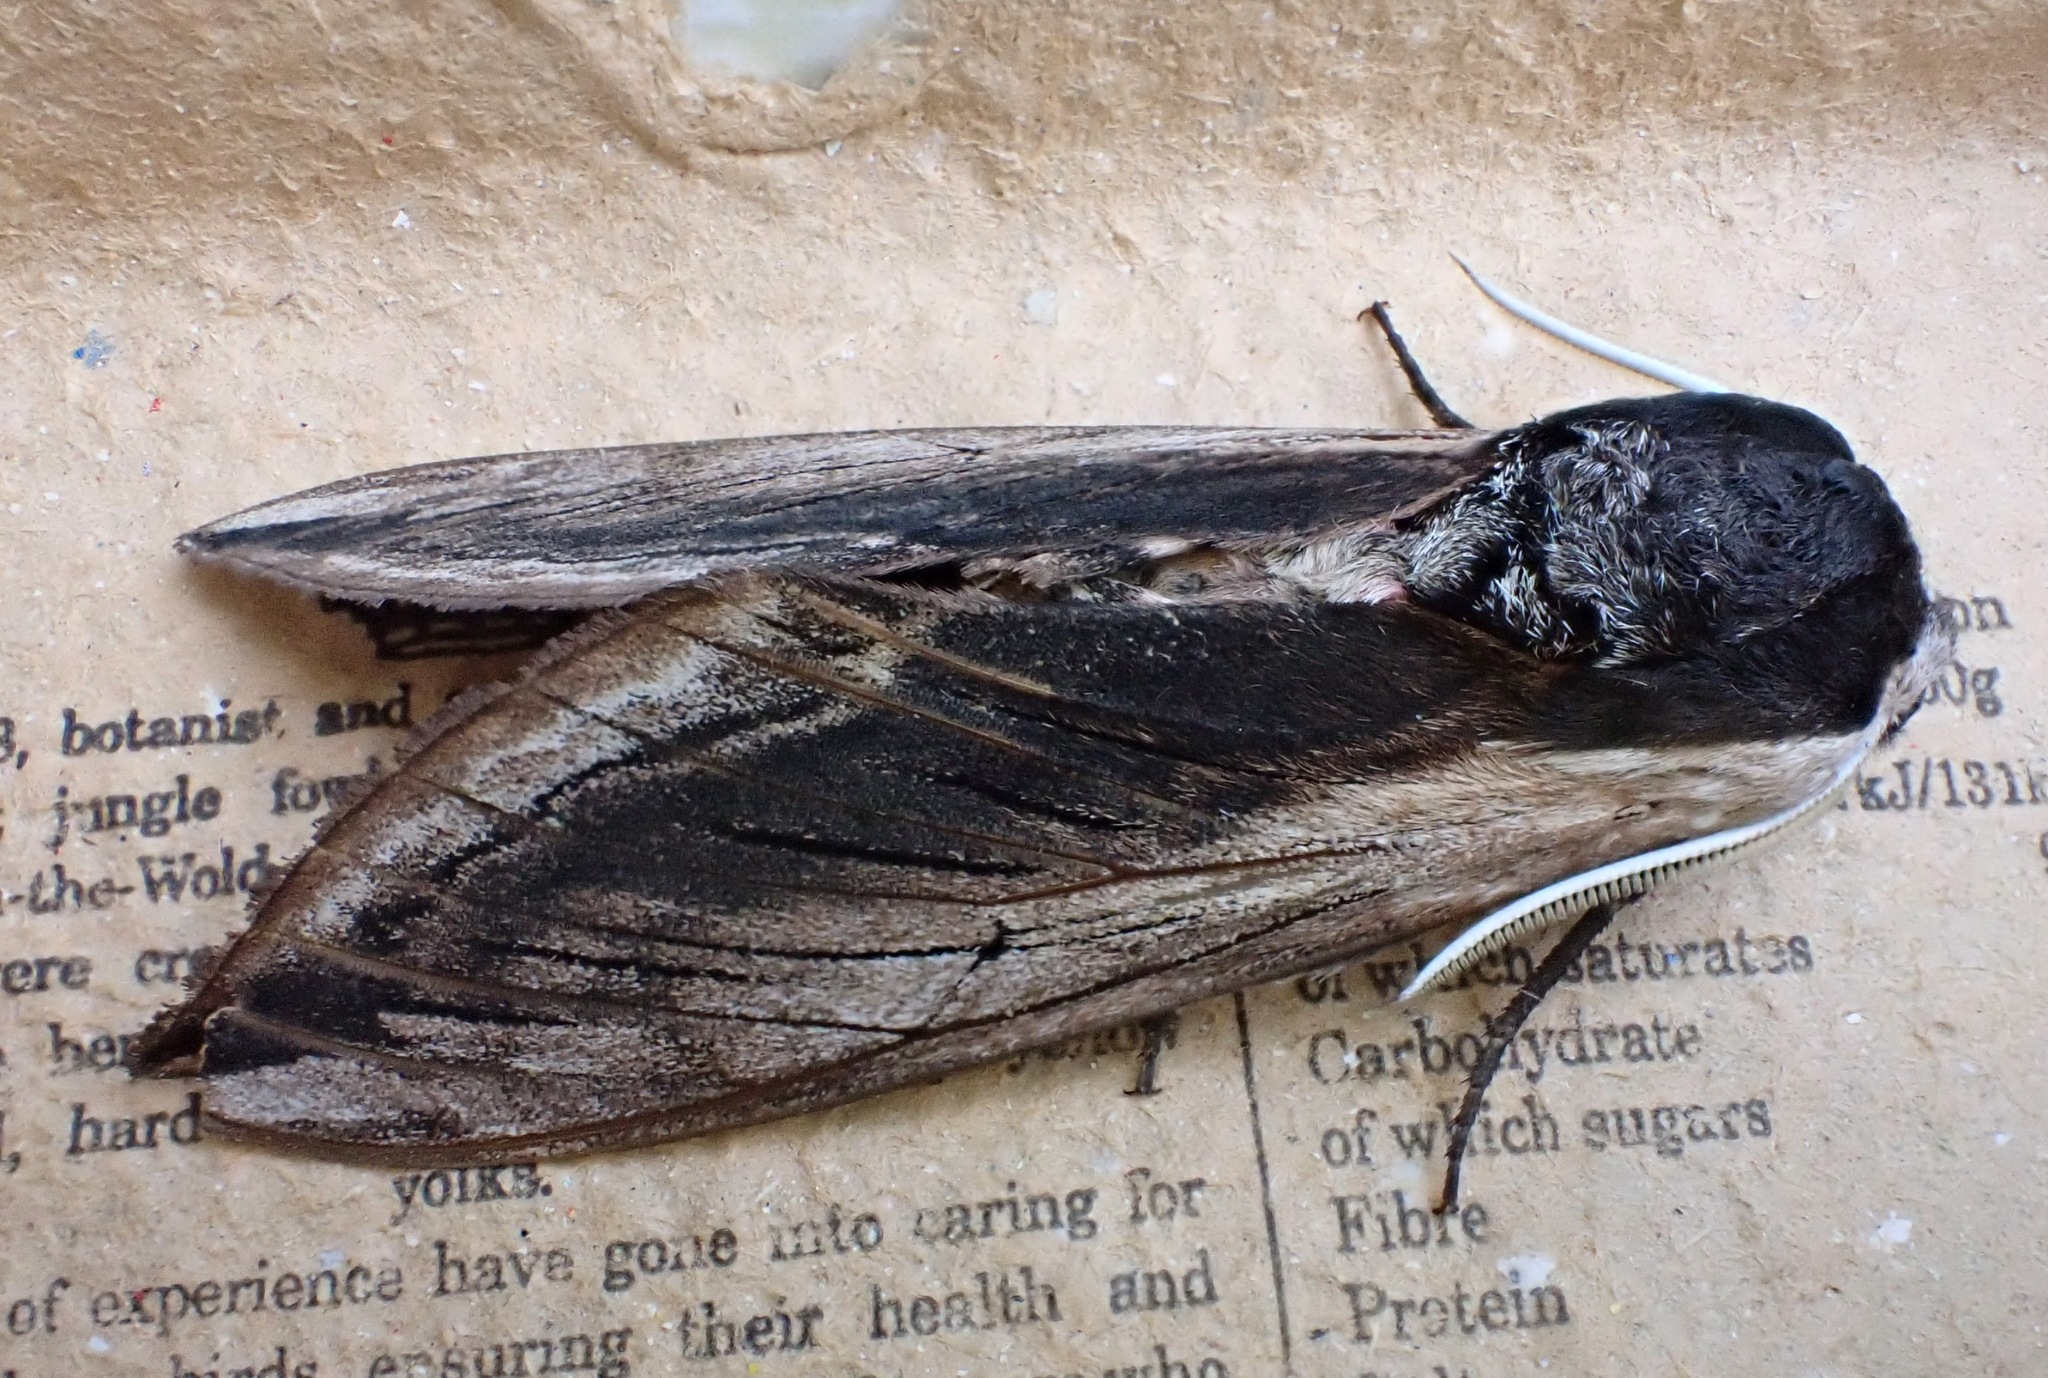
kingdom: Animalia
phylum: Arthropoda
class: Insecta
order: Lepidoptera
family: Sphingidae
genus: Sphinx
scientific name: Sphinx ligustri
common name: Privet hawk-moth
